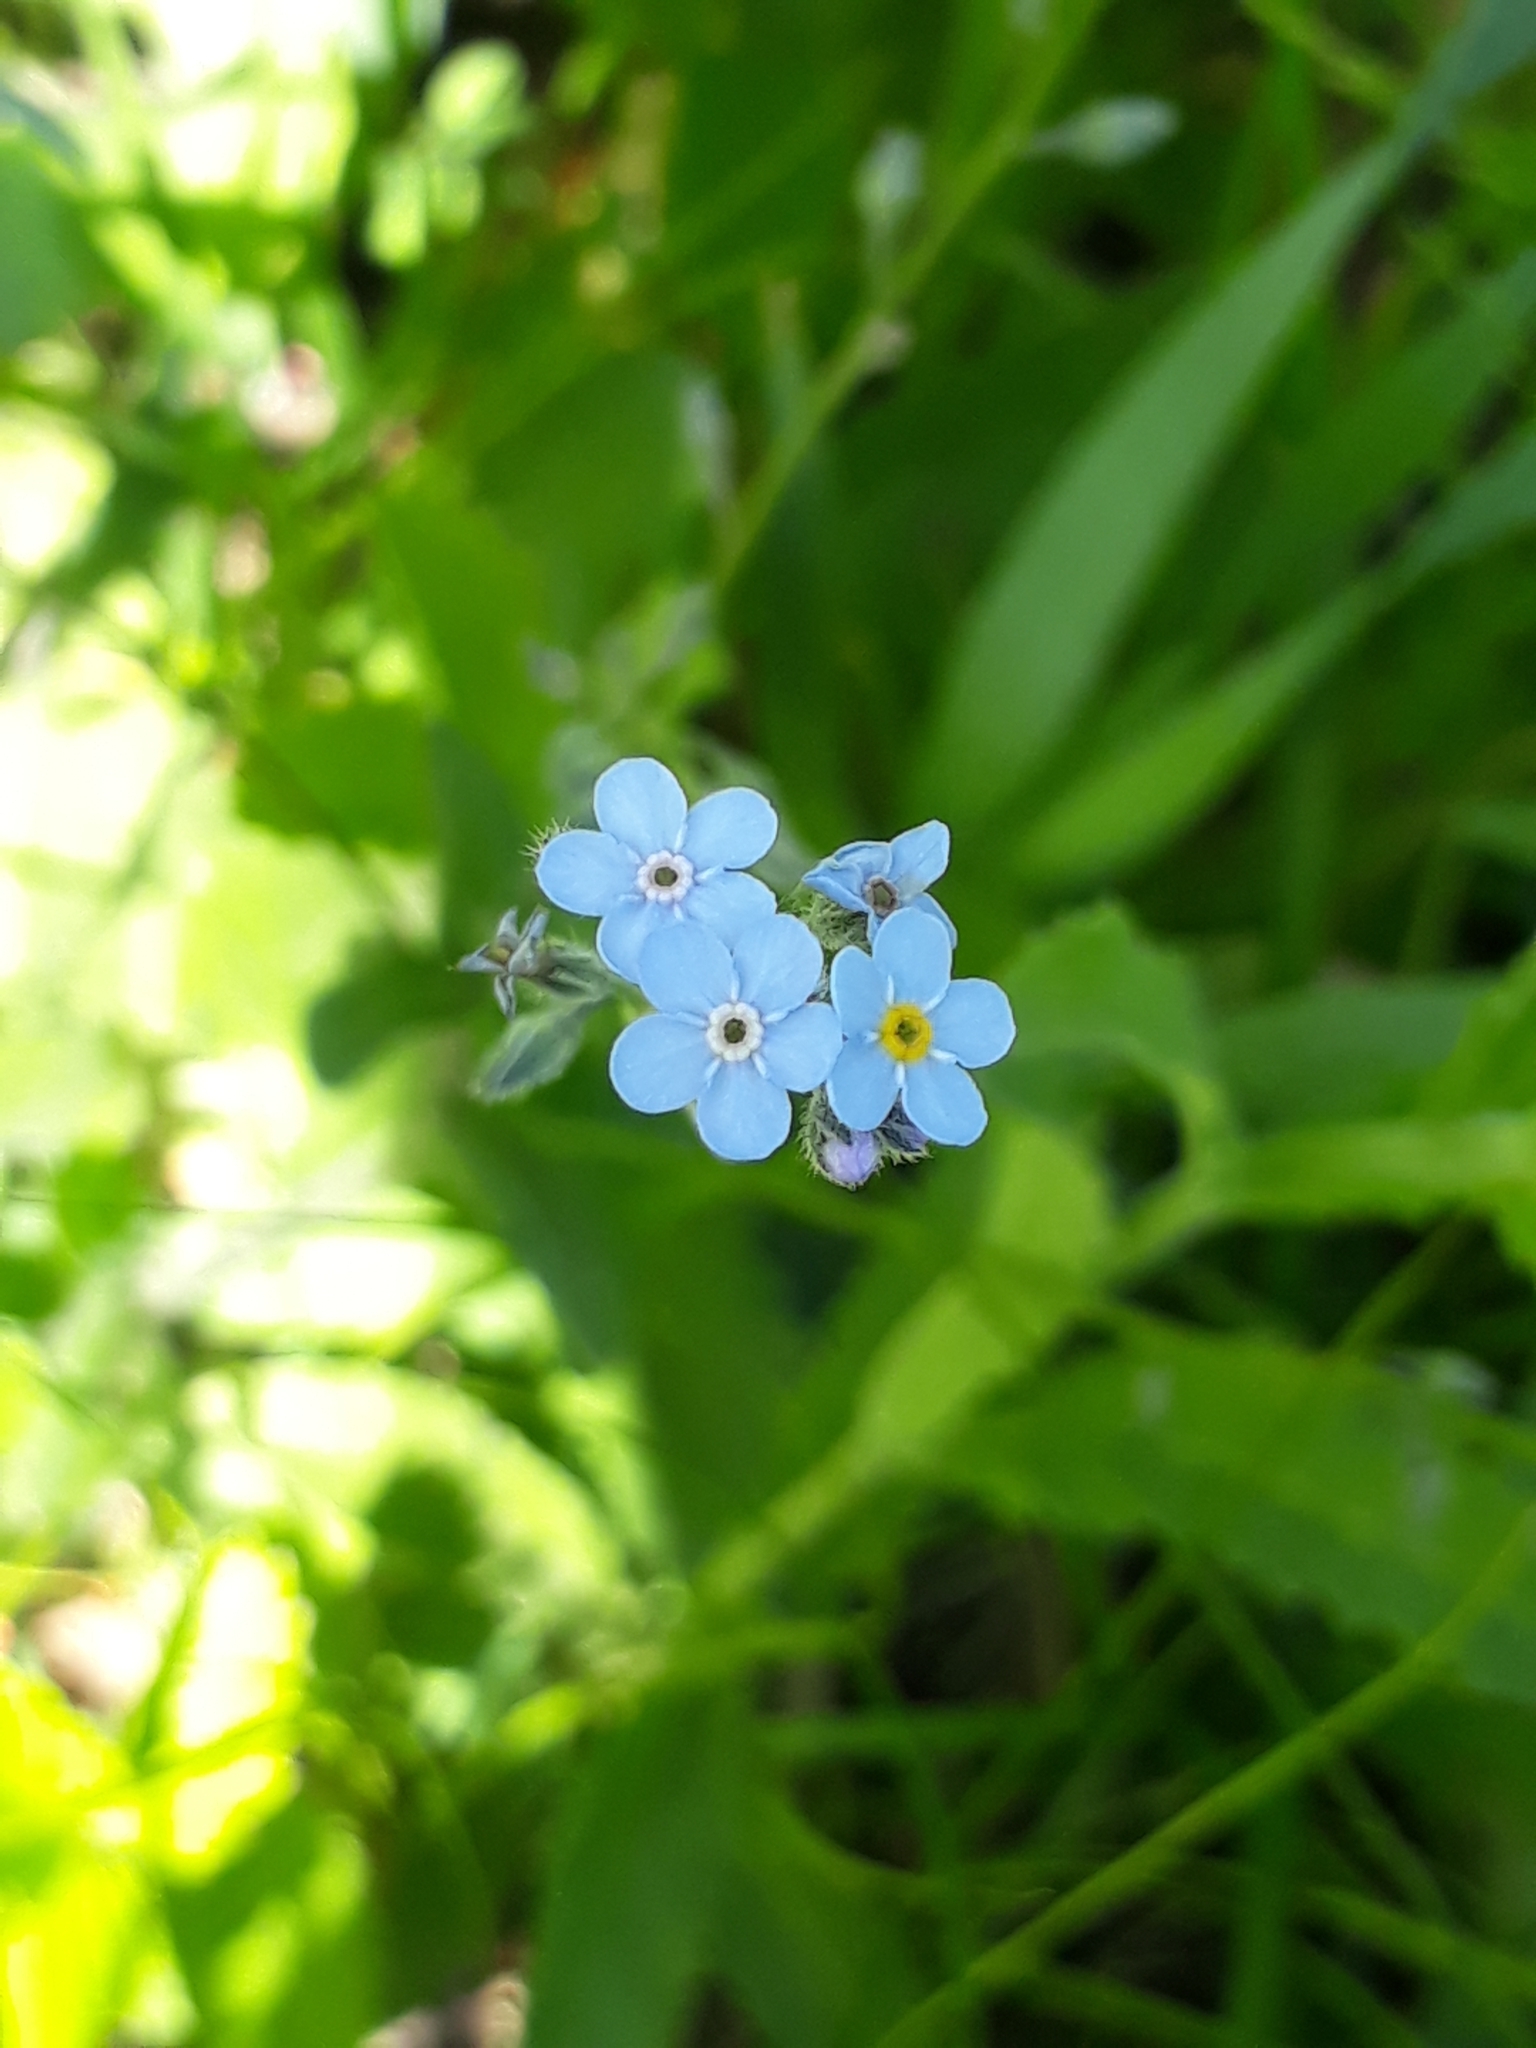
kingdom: Plantae
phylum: Tracheophyta
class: Magnoliopsida
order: Boraginales
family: Boraginaceae
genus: Myosotis
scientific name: Myosotis imitata
